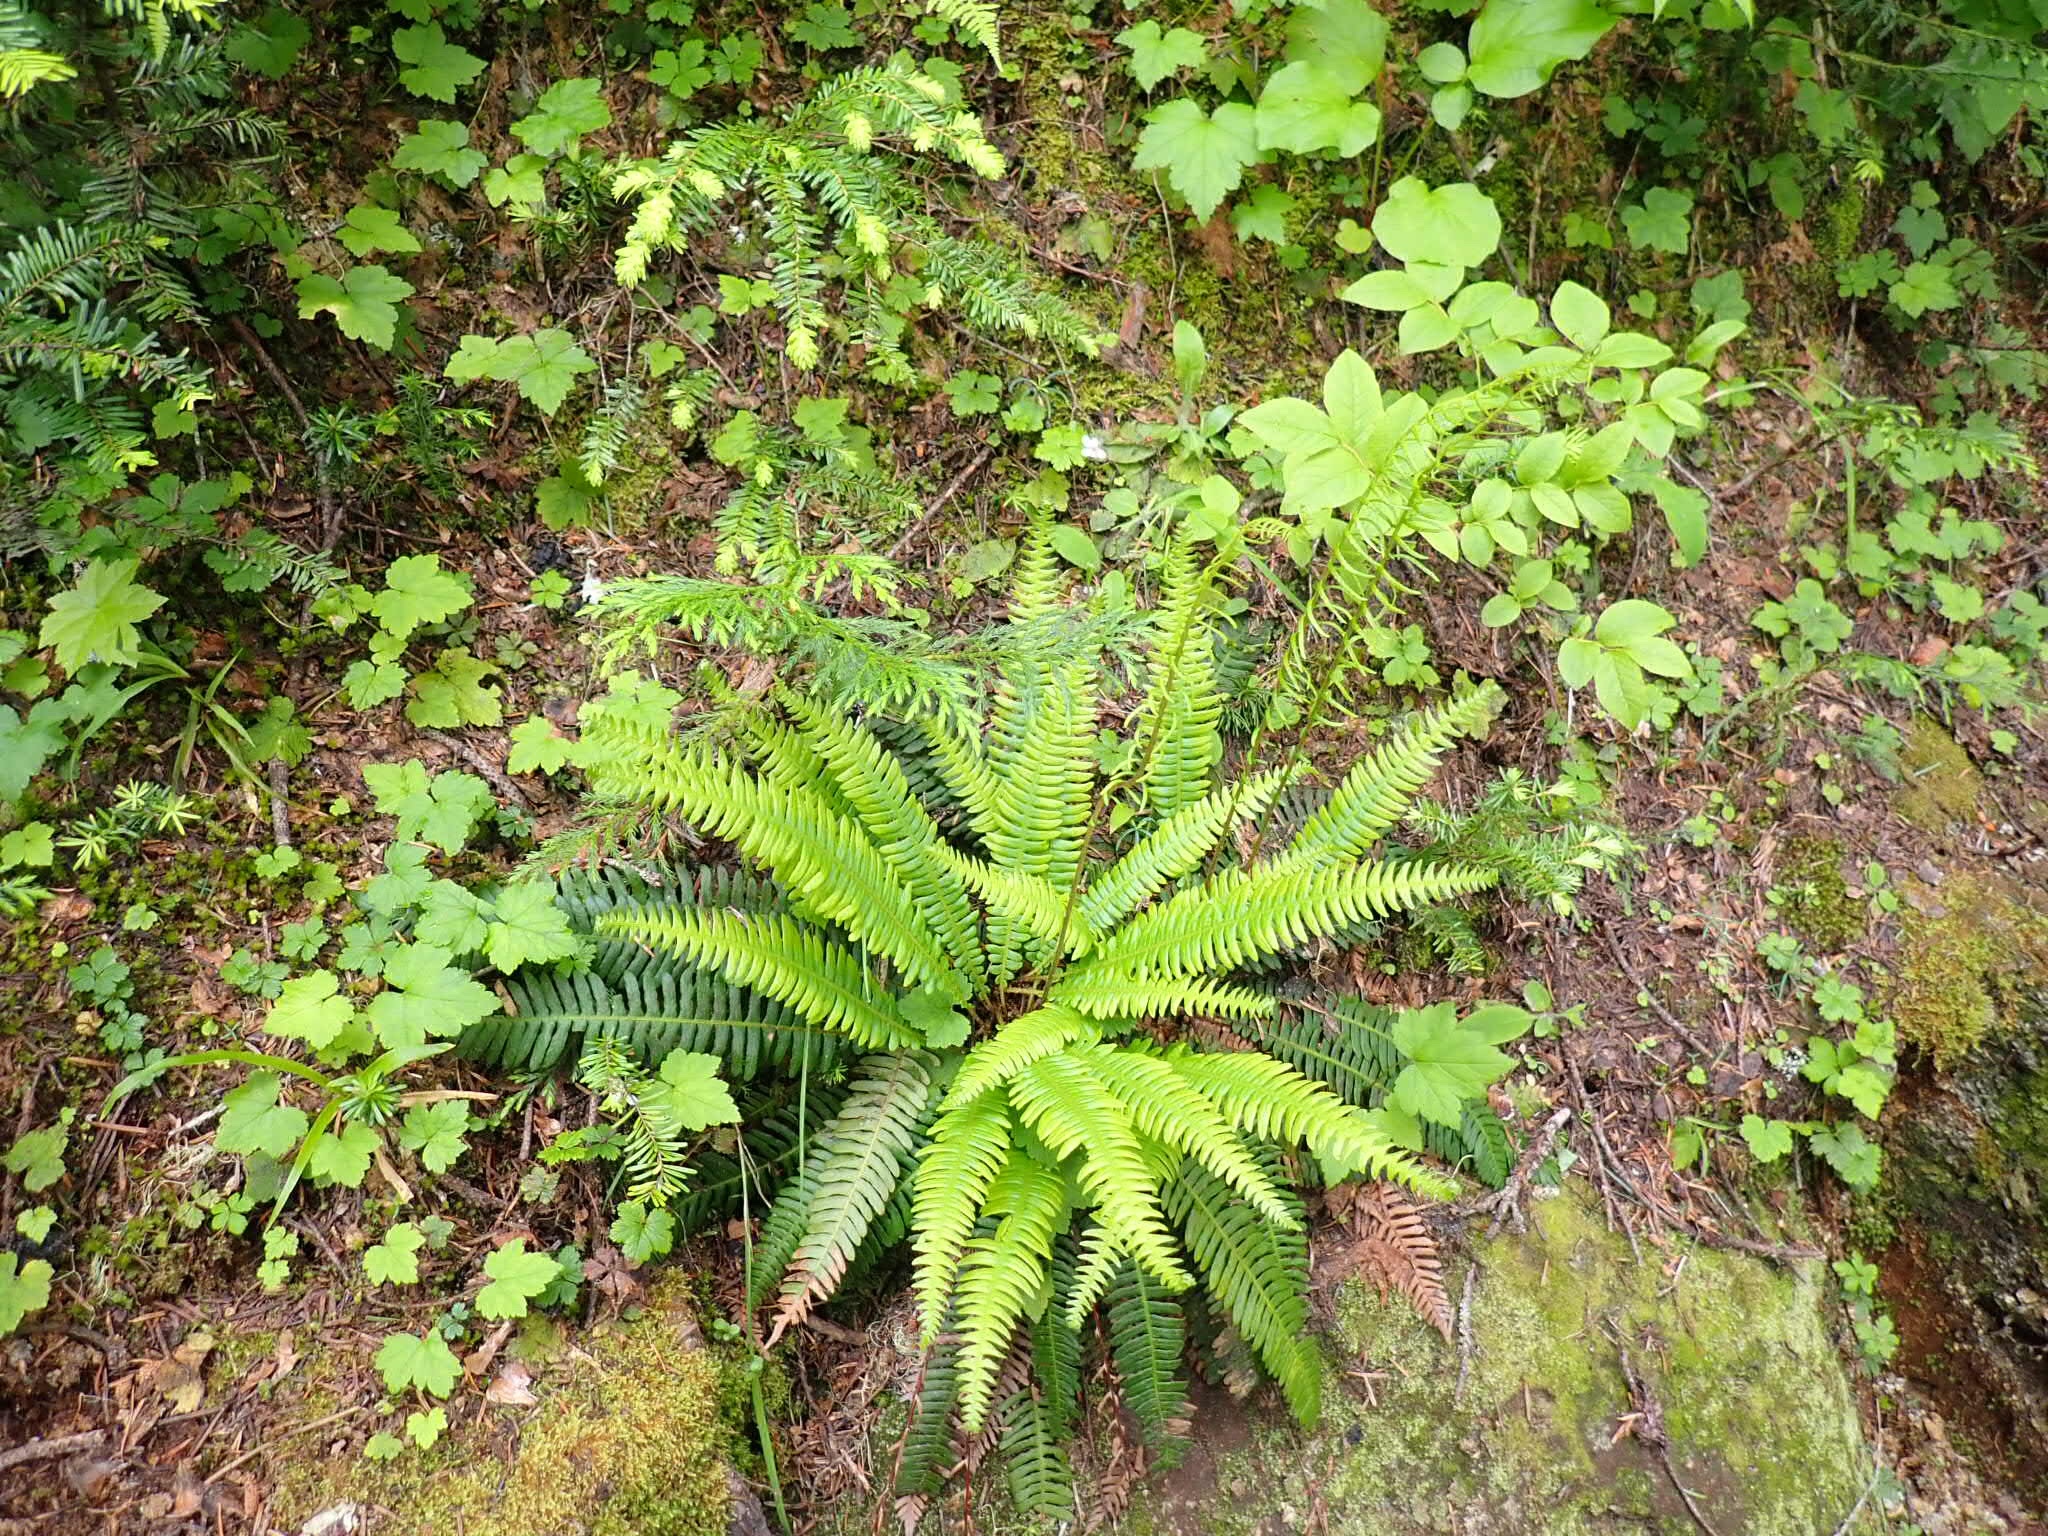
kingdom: Plantae
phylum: Tracheophyta
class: Polypodiopsida
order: Polypodiales
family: Blechnaceae
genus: Struthiopteris
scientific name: Struthiopteris spicant
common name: Deer fern
